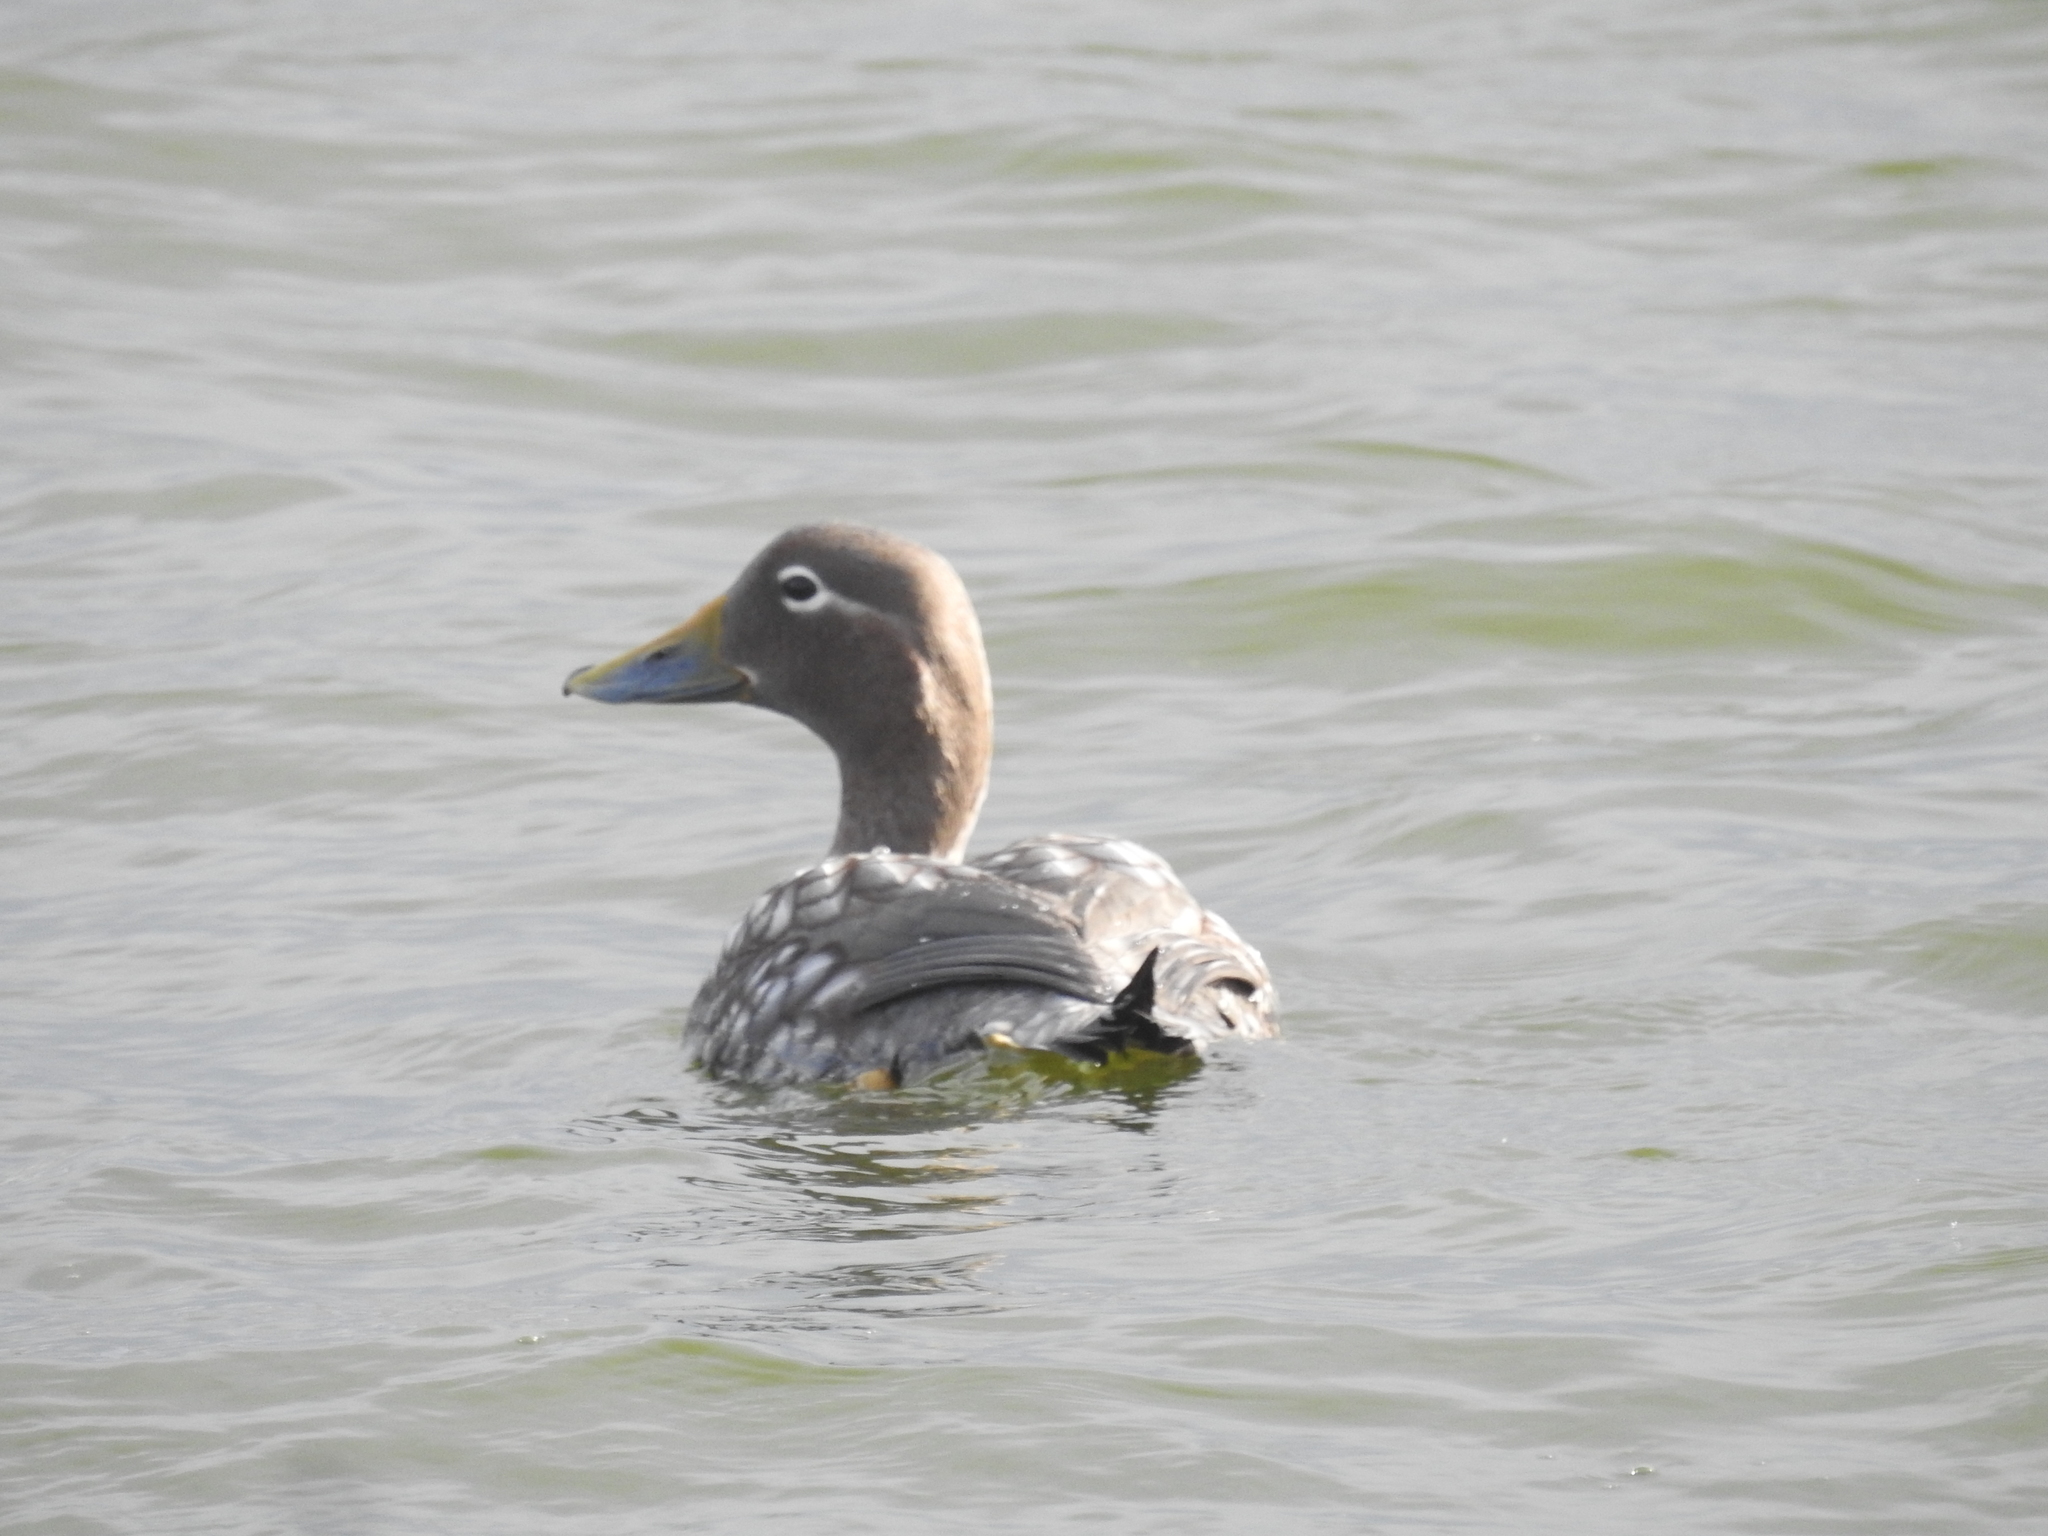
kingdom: Animalia
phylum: Chordata
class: Aves
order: Anseriformes
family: Anatidae
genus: Tachyeres
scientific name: Tachyeres patachonicus
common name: Flying steamer duck
